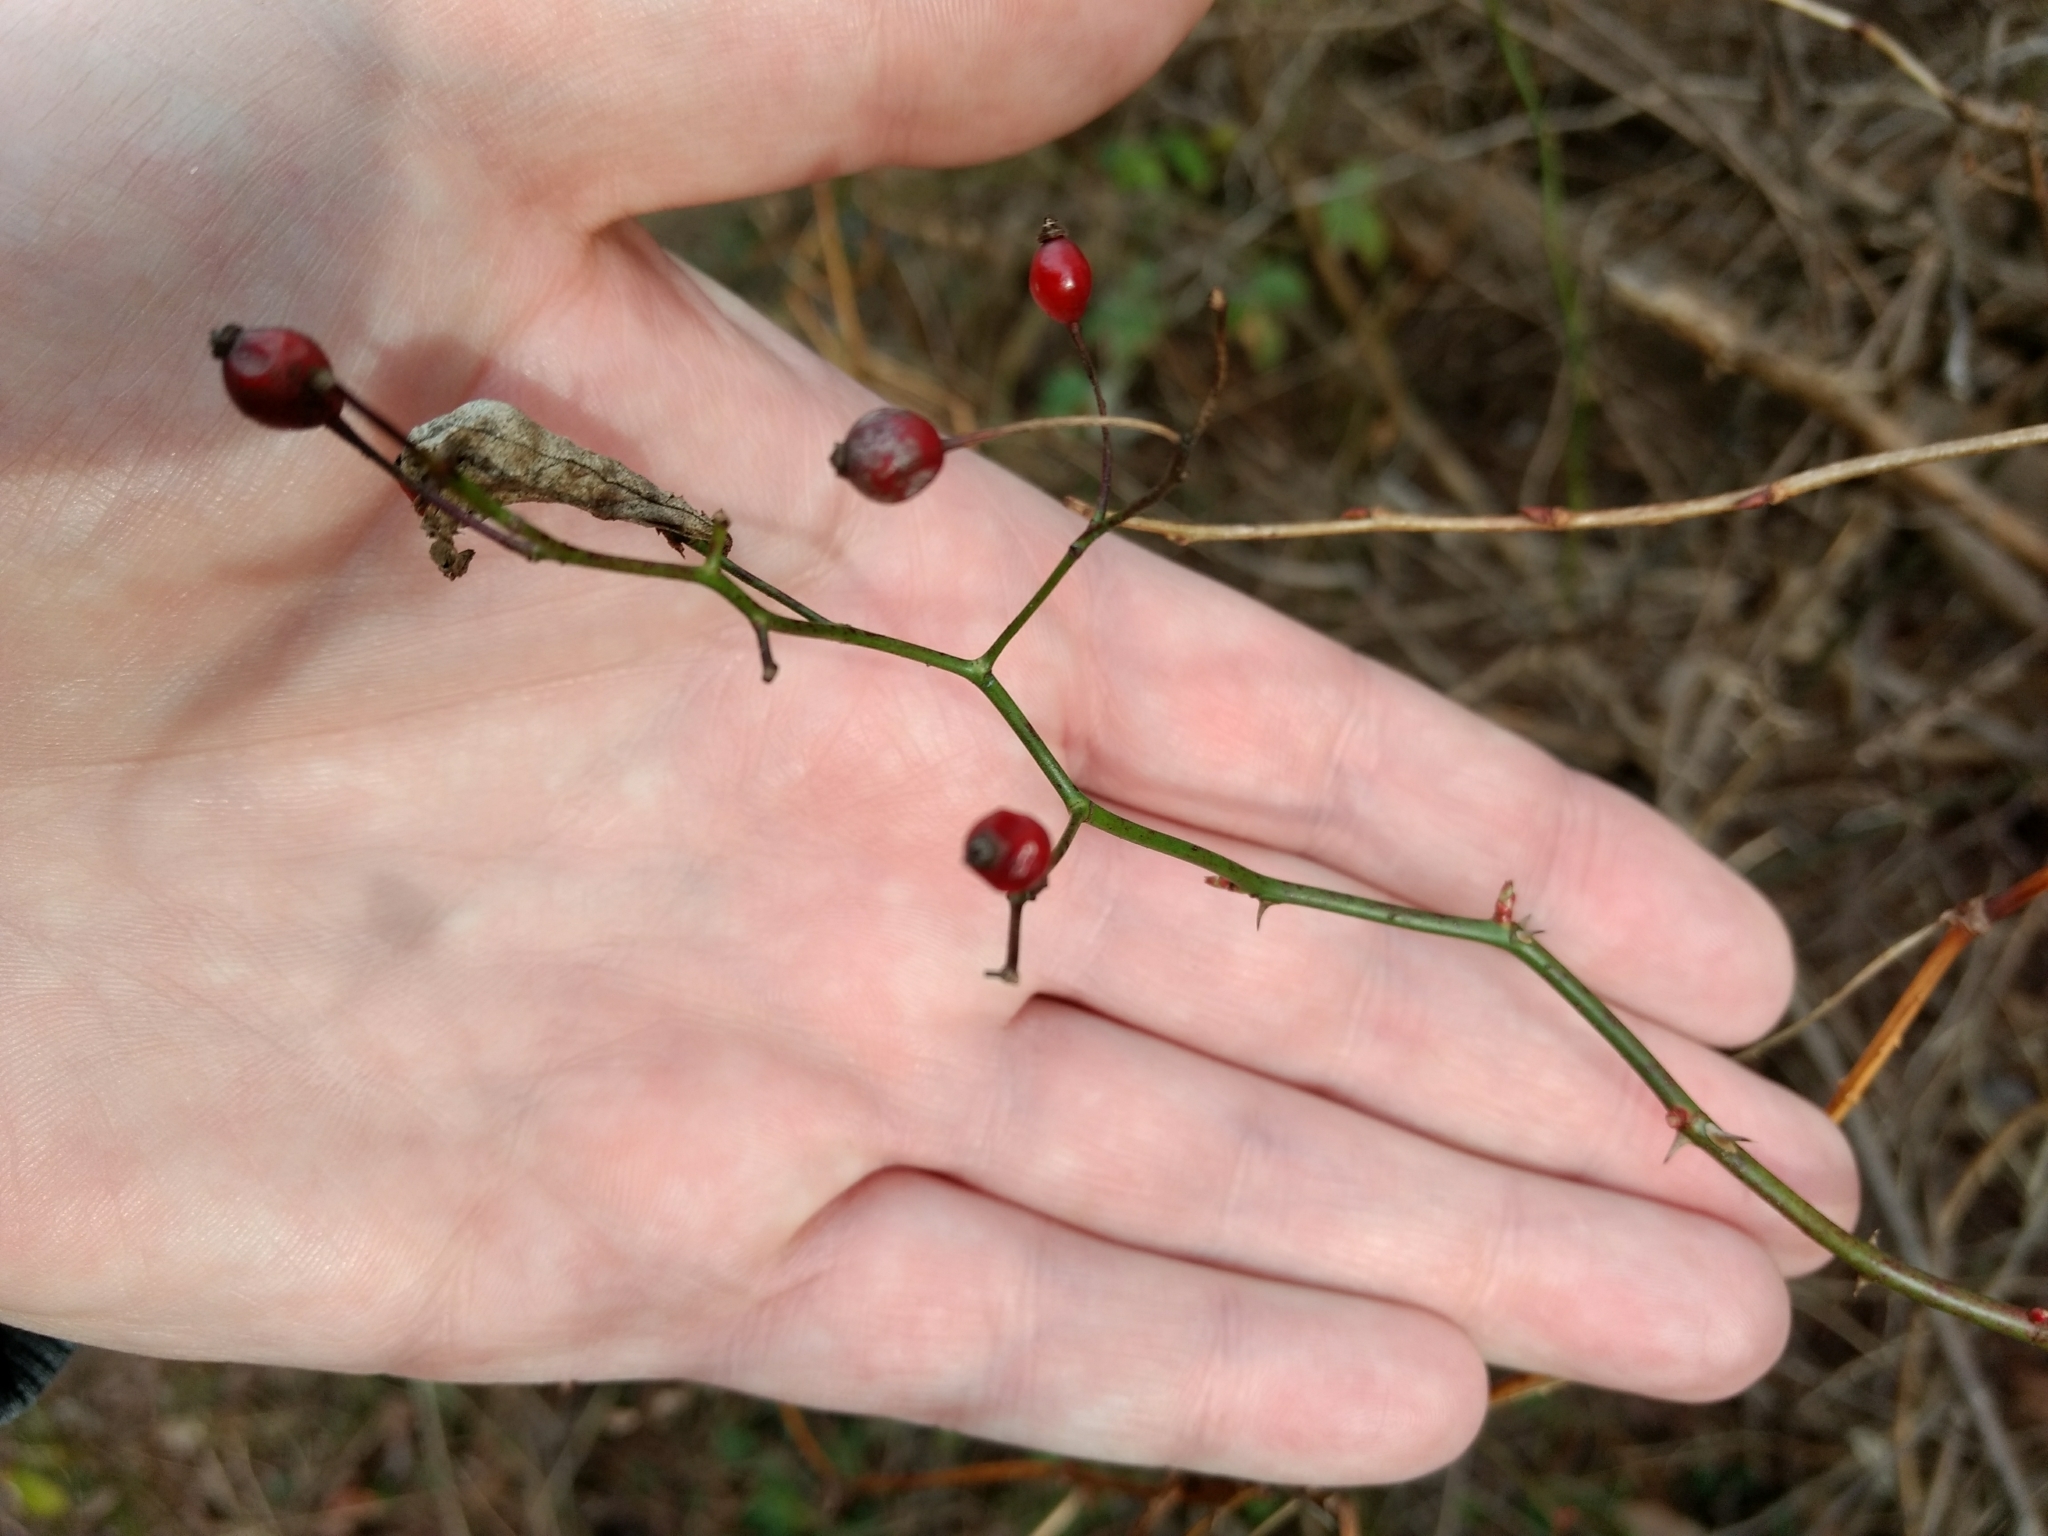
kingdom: Plantae
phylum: Tracheophyta
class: Magnoliopsida
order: Rosales
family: Rosaceae
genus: Rosa
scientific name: Rosa multiflora
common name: Multiflora rose
